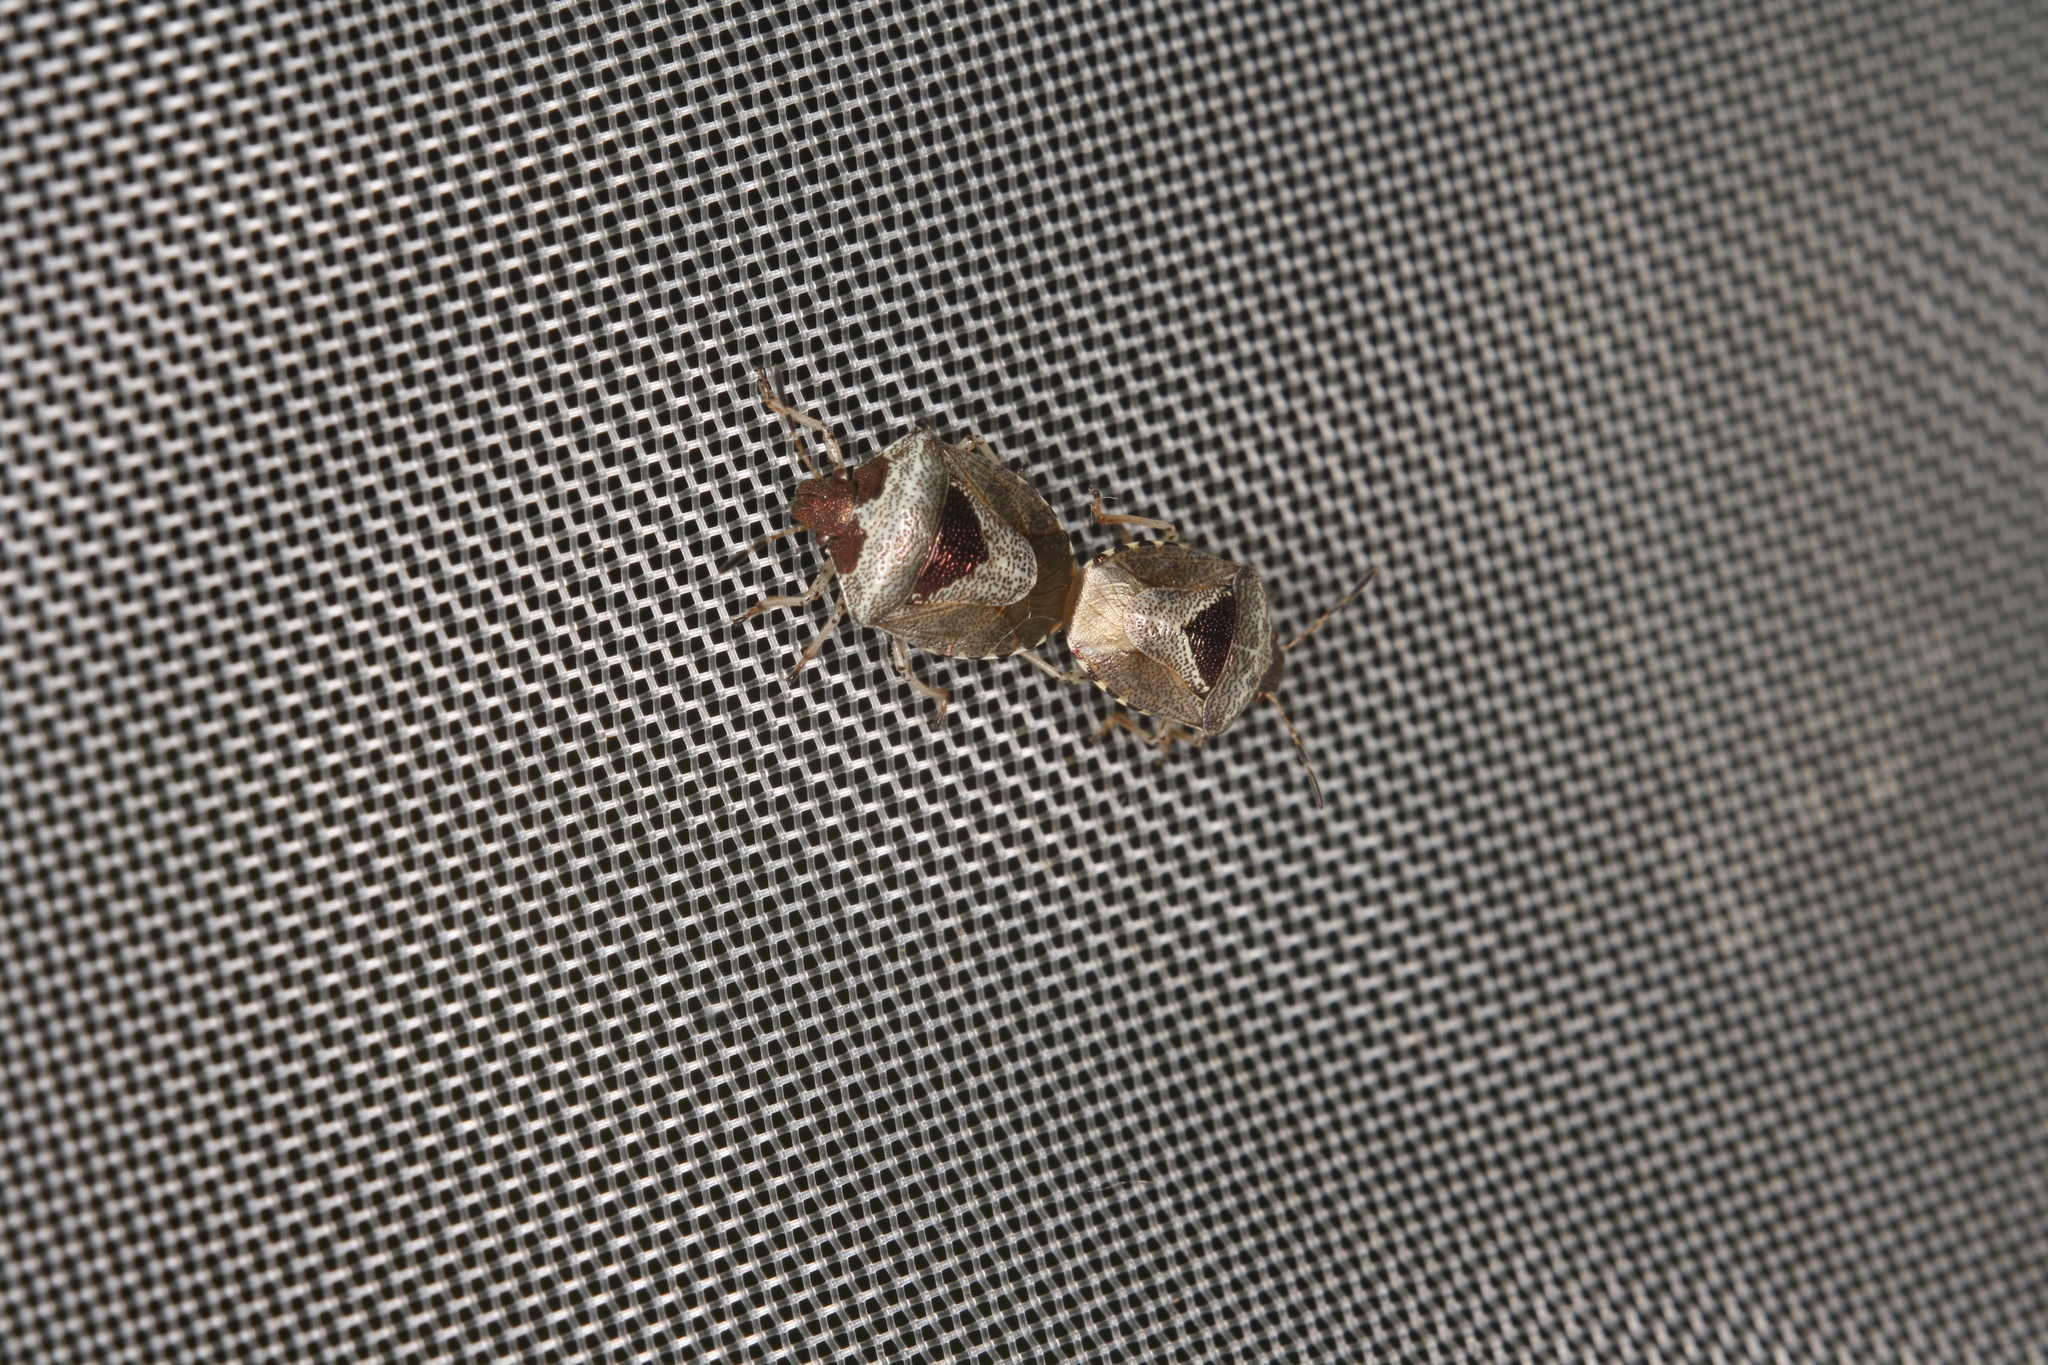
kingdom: Animalia
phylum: Arthropoda
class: Insecta
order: Hemiptera
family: Pentatomidae
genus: Eysarcoris
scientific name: Eysarcoris venustissimus
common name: Woundwort shieldbug
